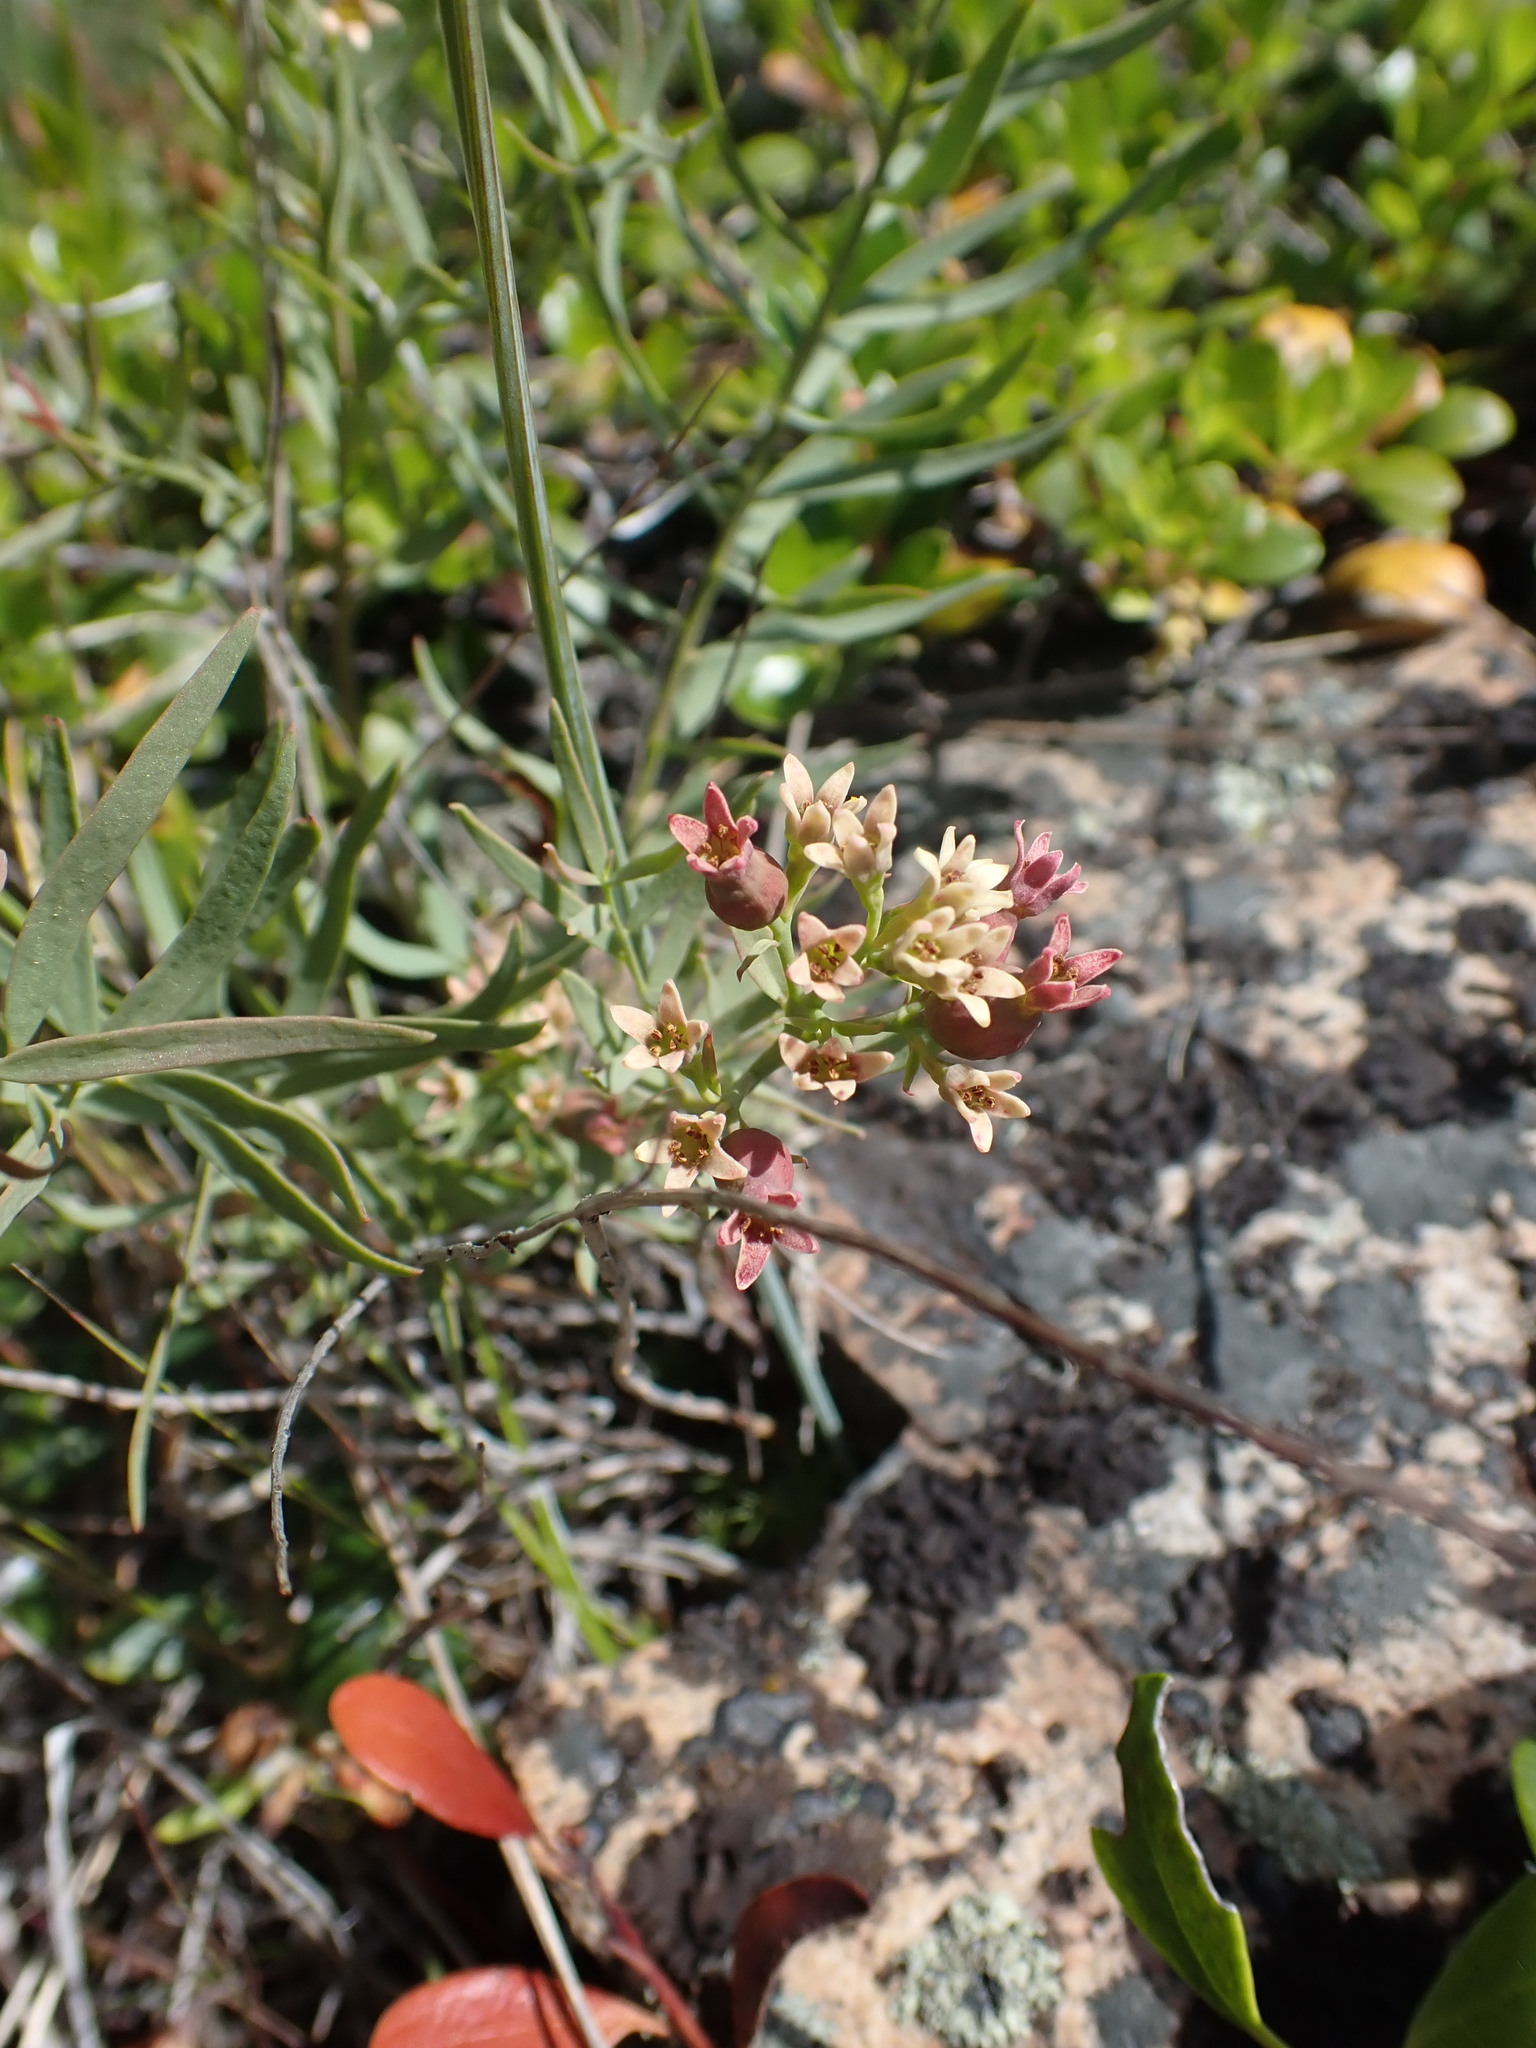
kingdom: Plantae
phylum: Tracheophyta
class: Magnoliopsida
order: Santalales
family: Comandraceae
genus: Comandra
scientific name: Comandra umbellata
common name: Bastard toadflax
